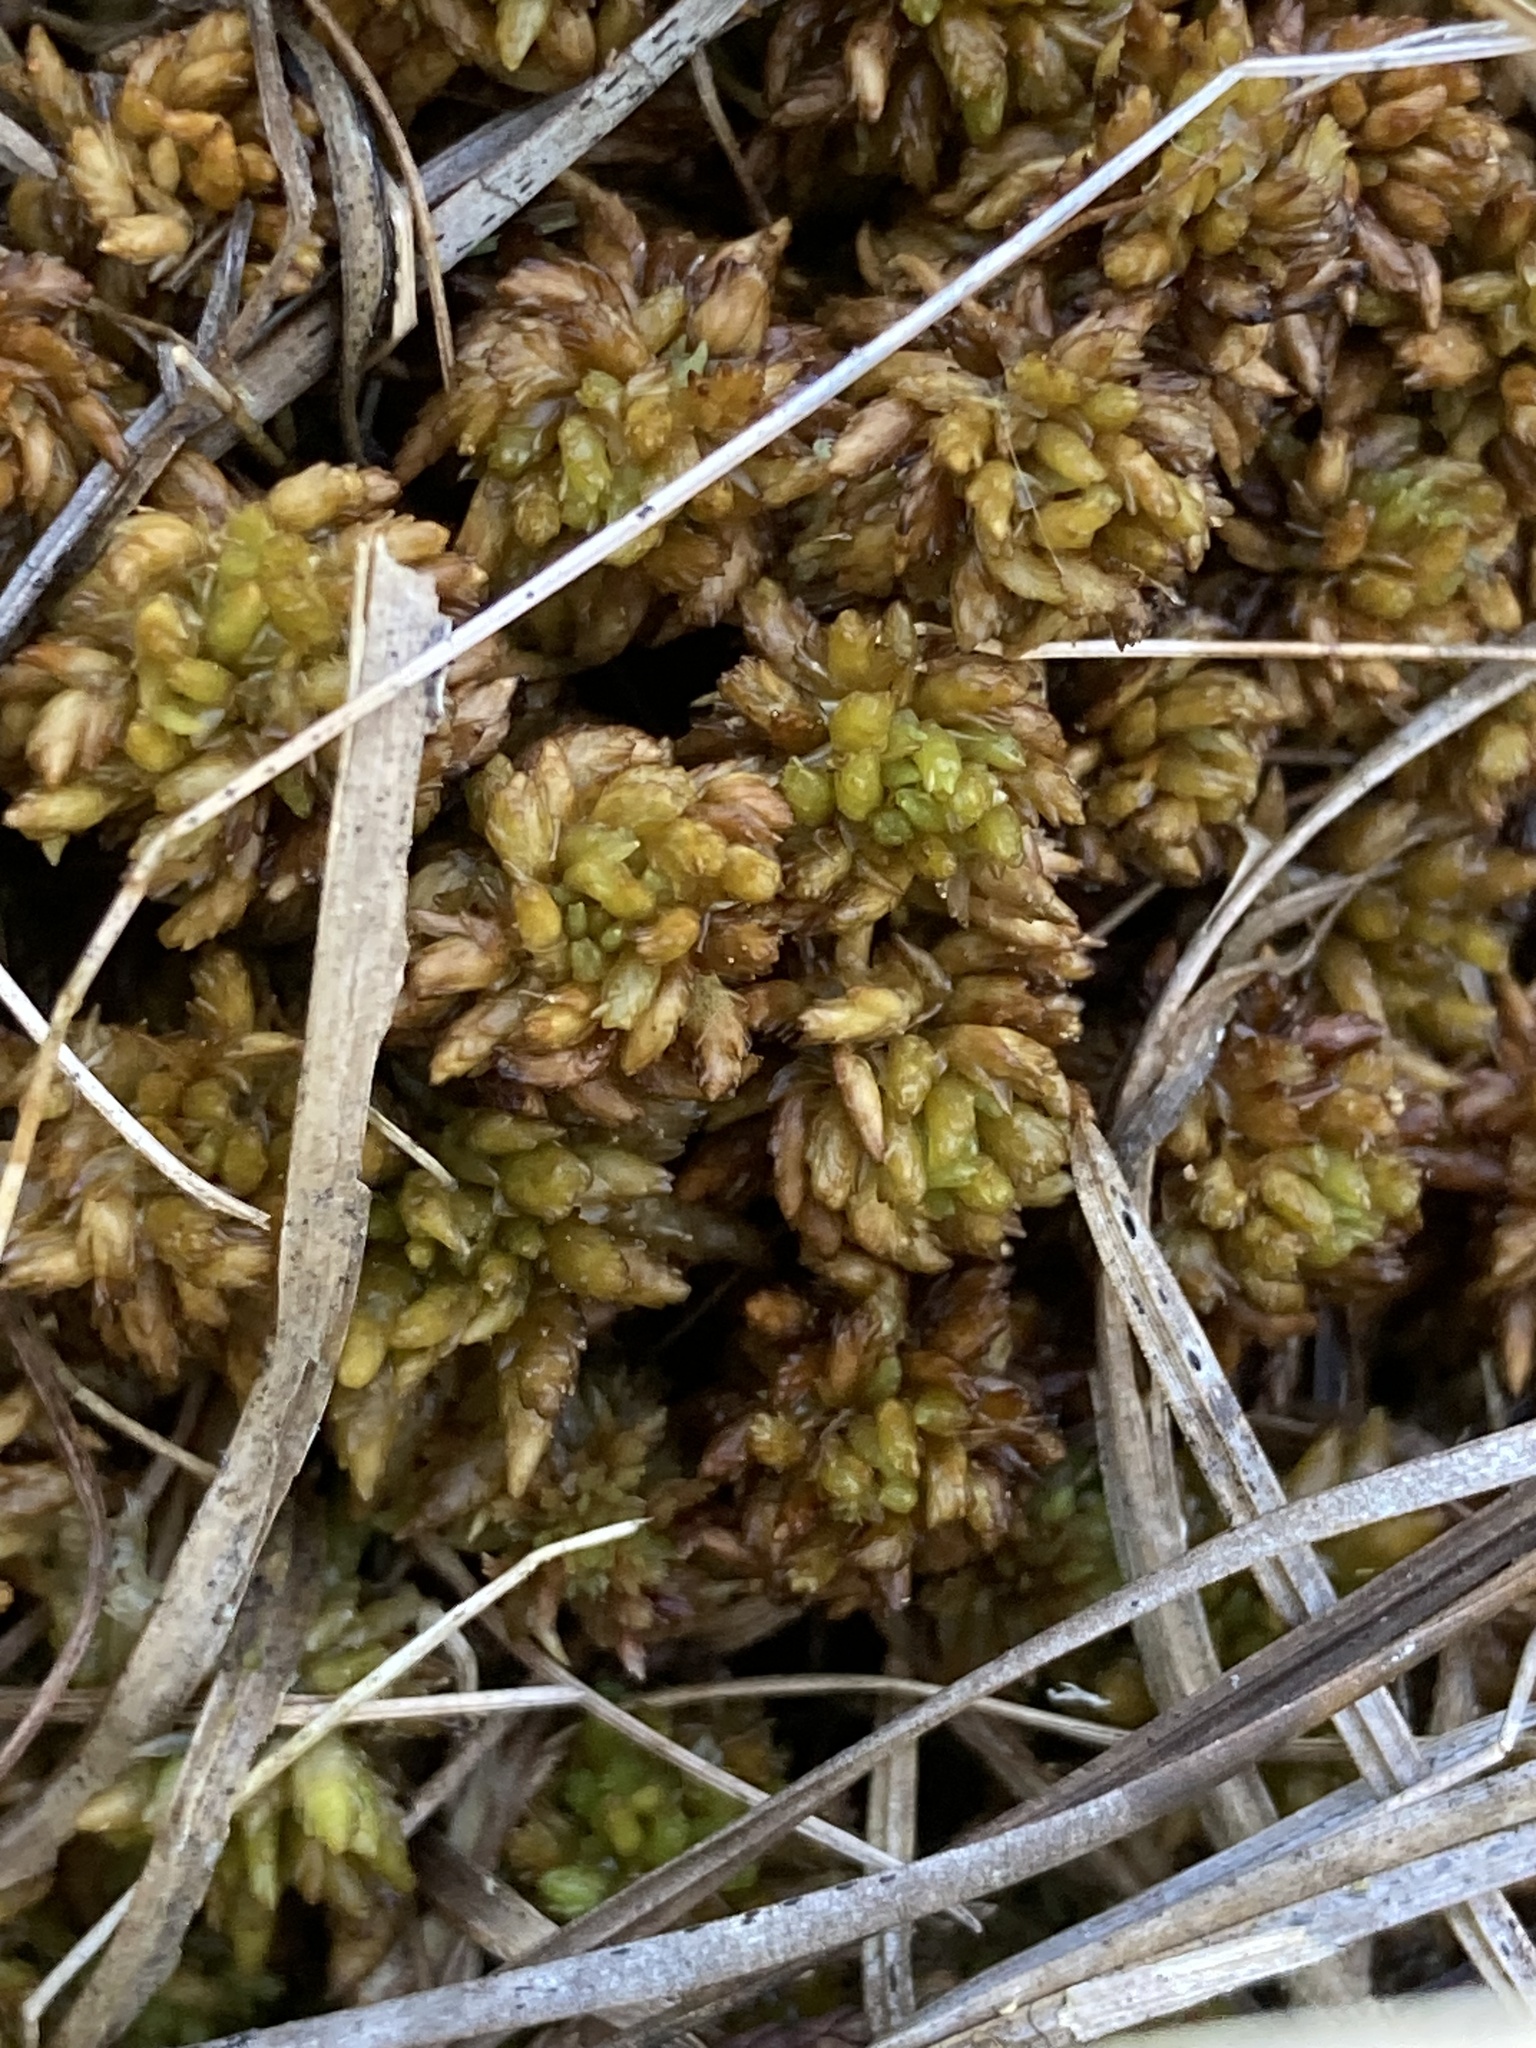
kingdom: Plantae
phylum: Bryophyta
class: Sphagnopsida
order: Sphagnales
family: Sphagnaceae
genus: Sphagnum
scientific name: Sphagnum lescurii
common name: Lesquereux's peat moss
